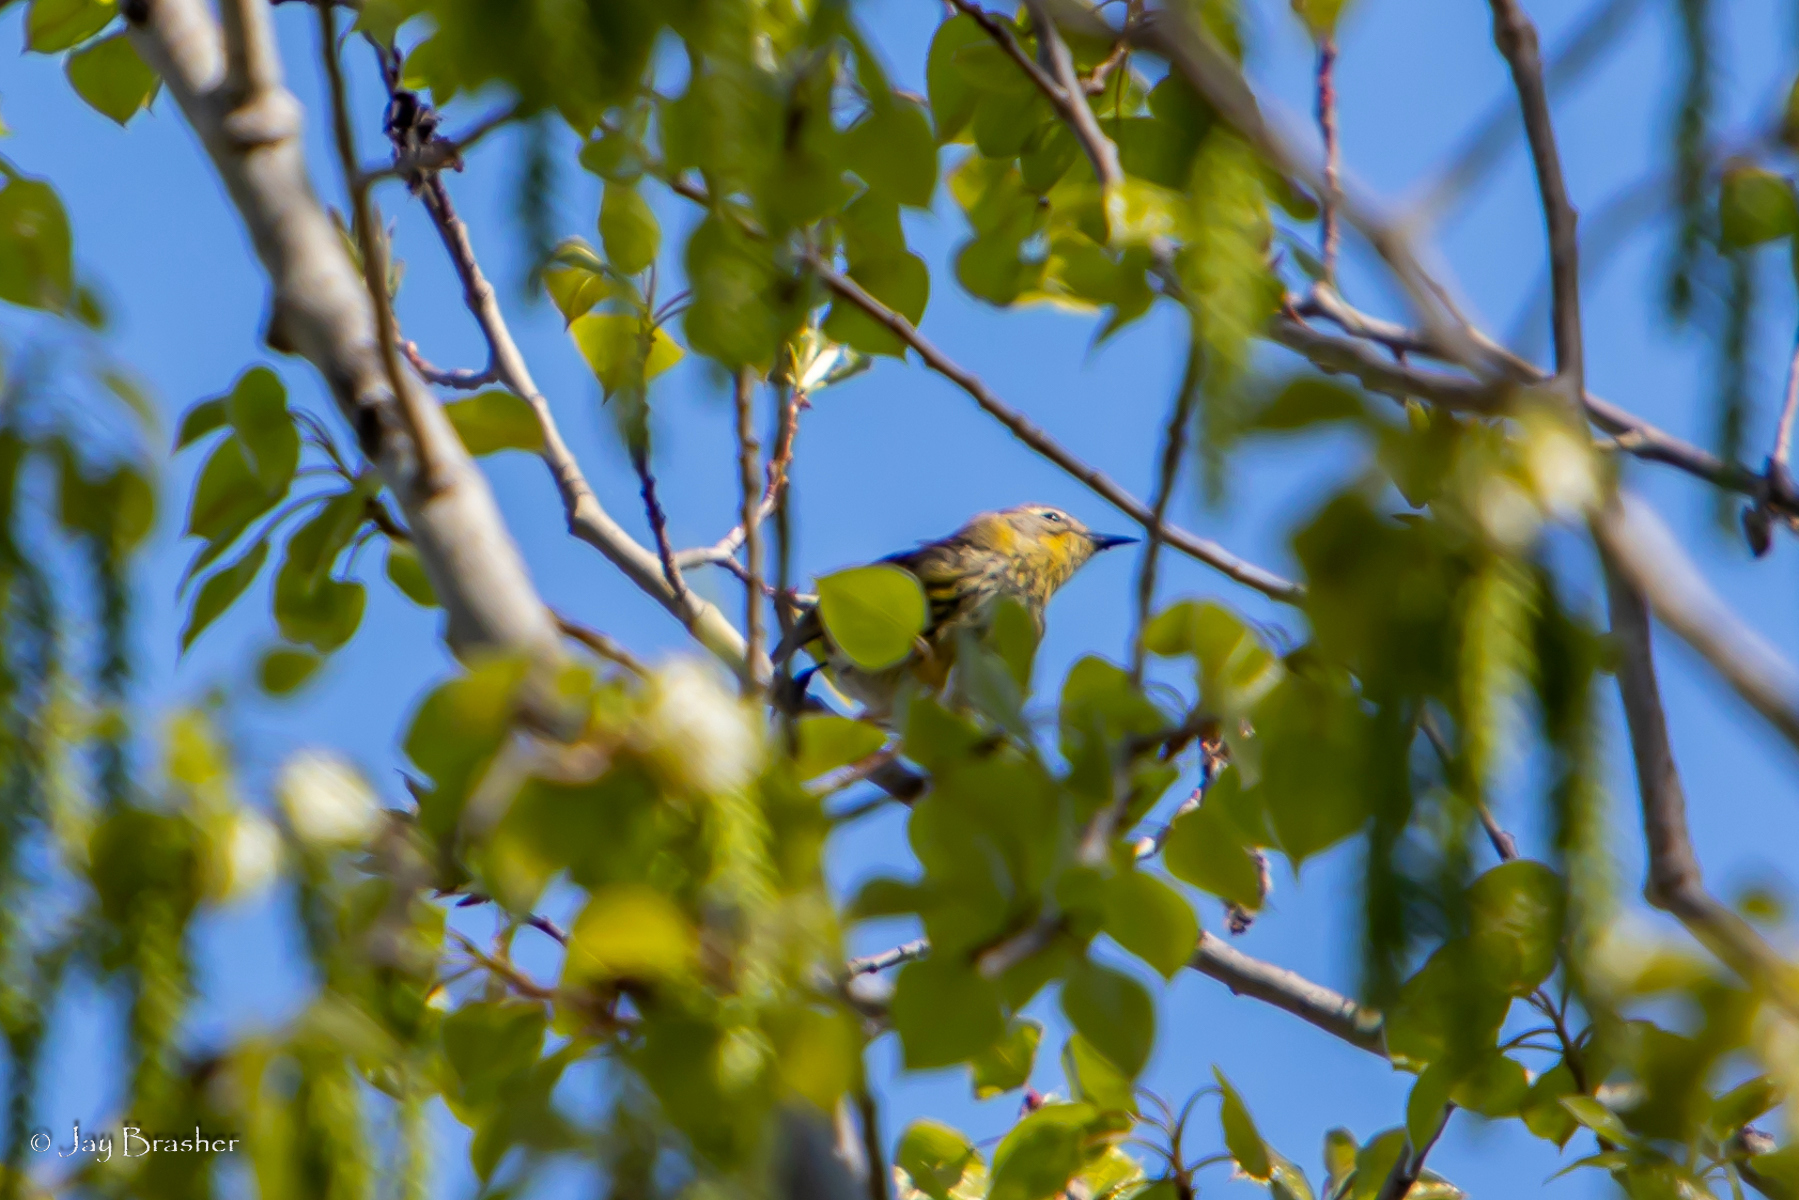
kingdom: Animalia
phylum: Chordata
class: Aves
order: Passeriformes
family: Parulidae
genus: Setophaga
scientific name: Setophaga tigrina
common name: Cape may warbler
